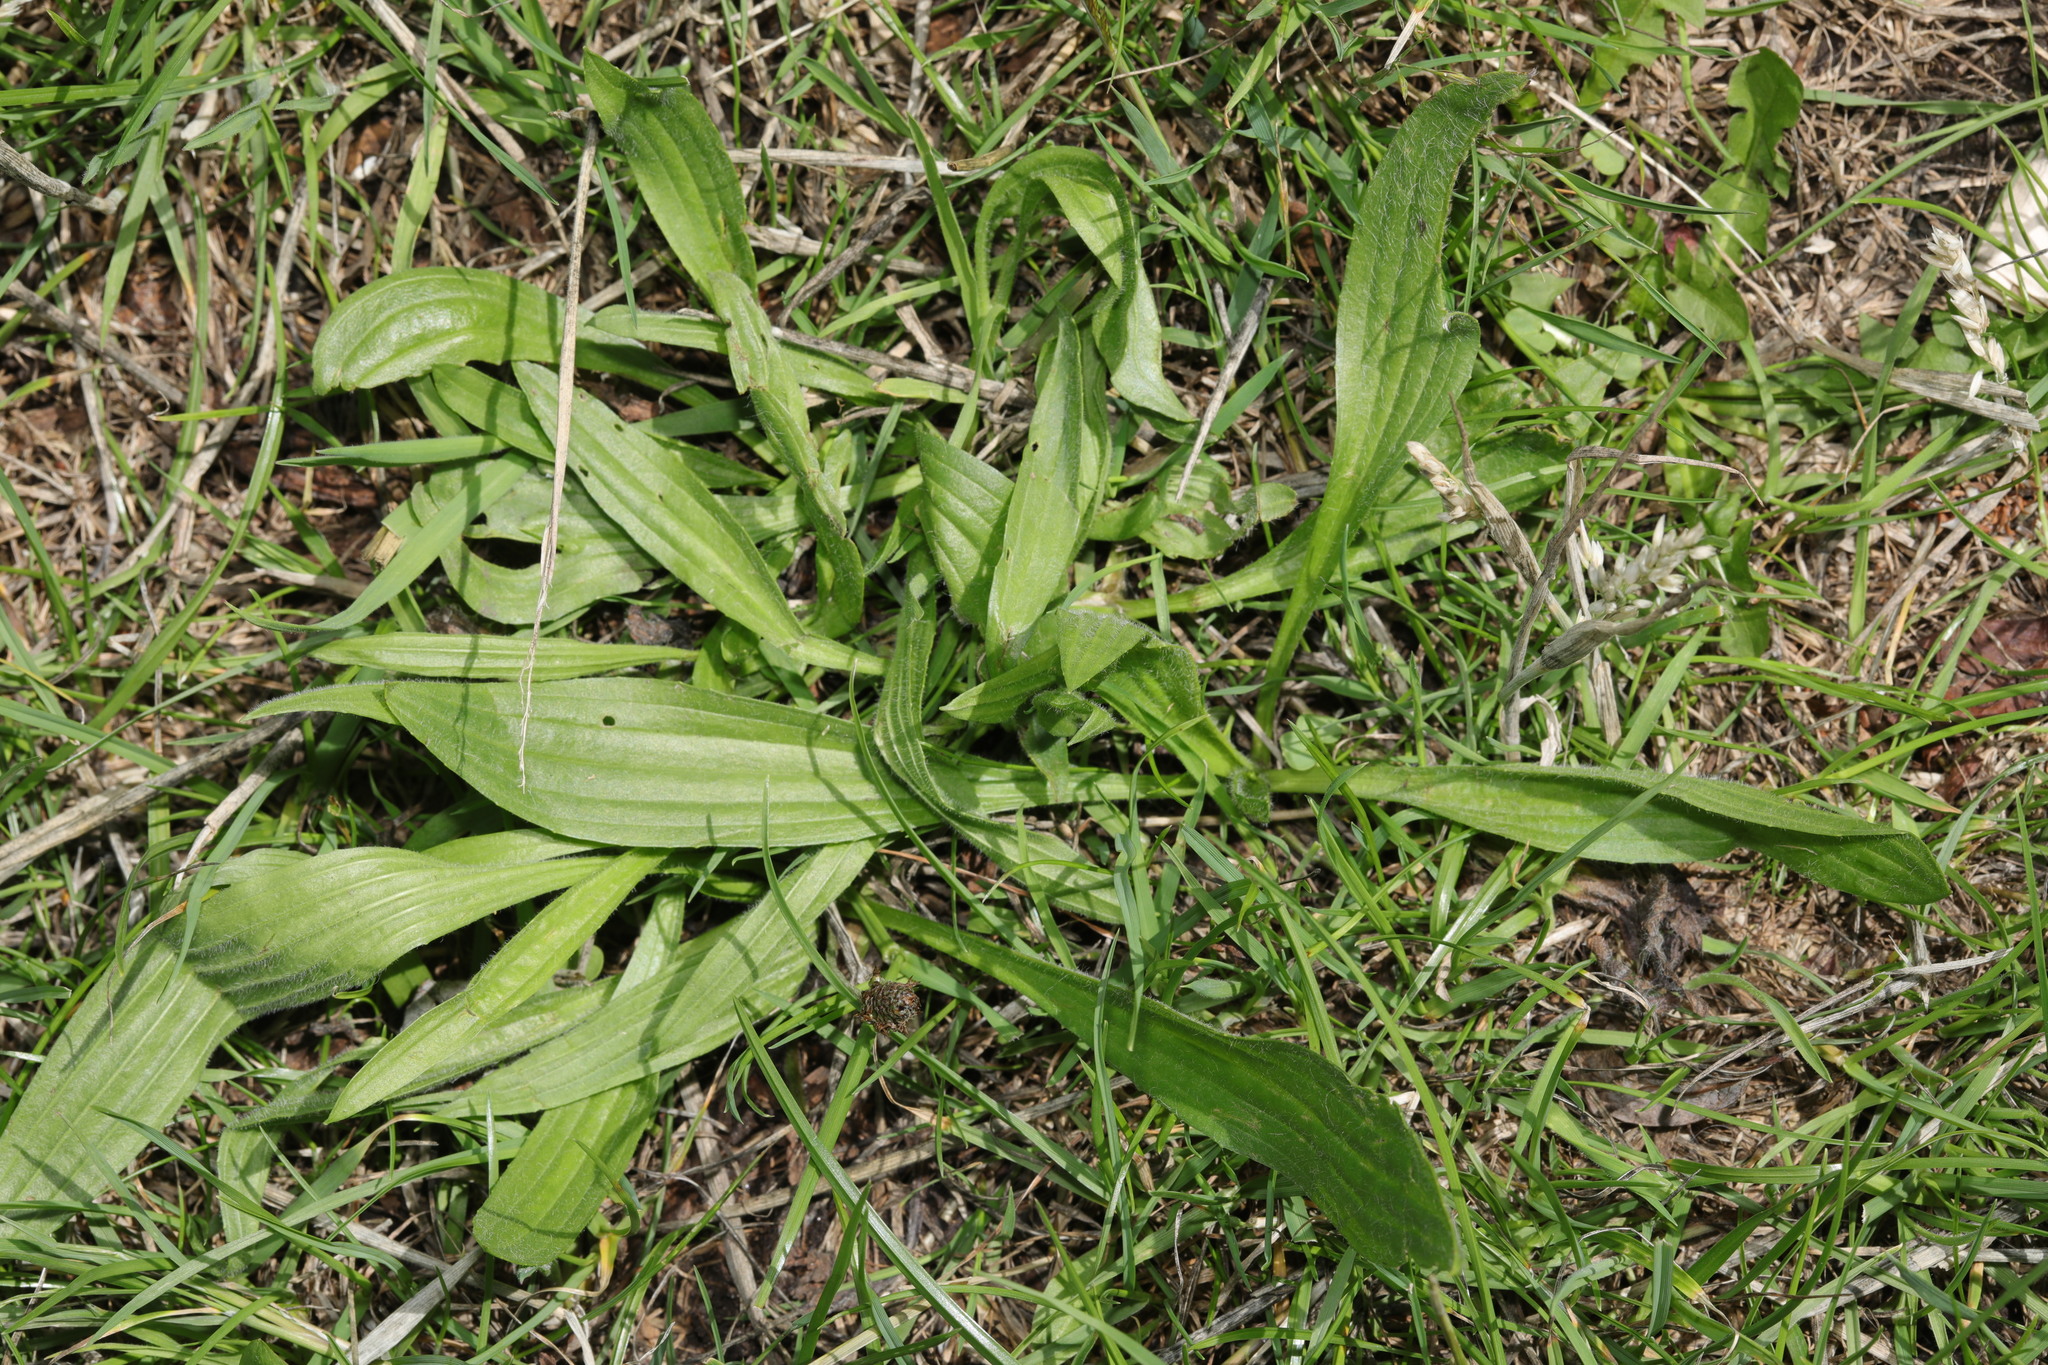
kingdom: Plantae
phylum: Tracheophyta
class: Magnoliopsida
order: Lamiales
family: Plantaginaceae
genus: Plantago
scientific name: Plantago lanceolata
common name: Ribwort plantain
